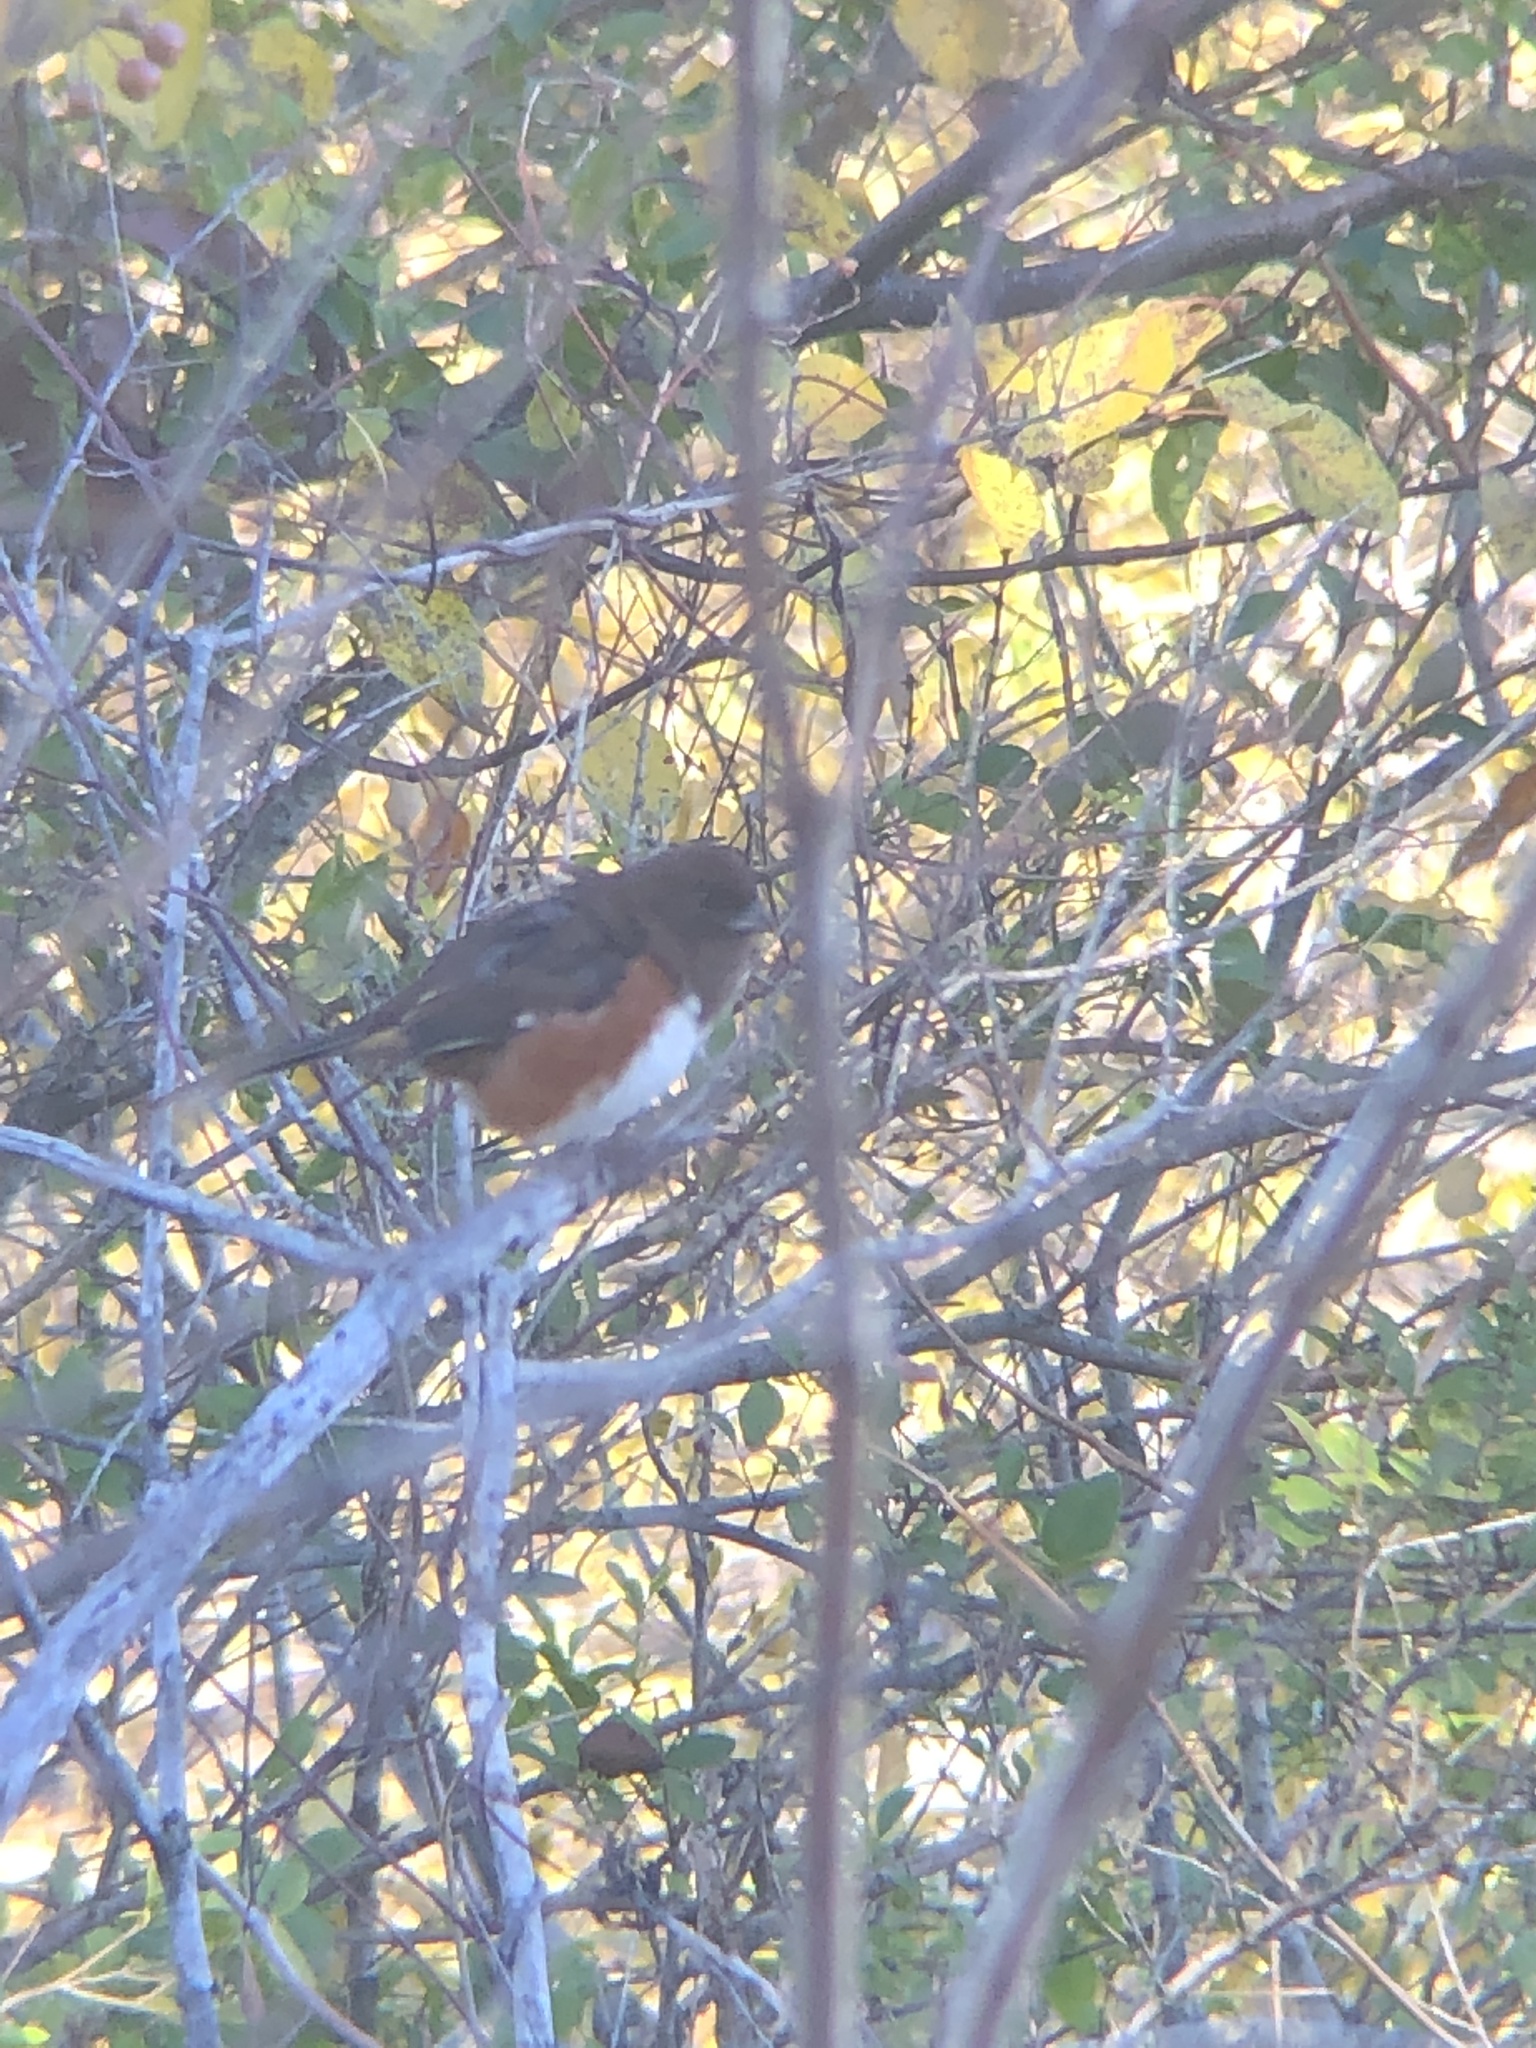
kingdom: Animalia
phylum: Chordata
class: Aves
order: Passeriformes
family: Passerellidae
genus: Pipilo
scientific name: Pipilo erythrophthalmus
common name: Eastern towhee
